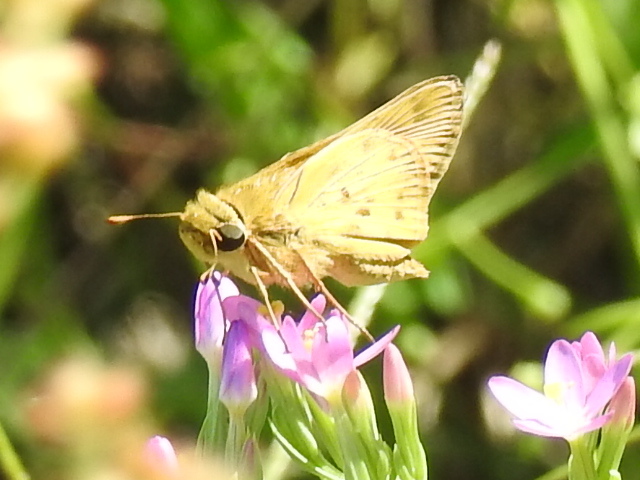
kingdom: Animalia
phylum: Arthropoda
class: Insecta
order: Lepidoptera
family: Hesperiidae
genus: Hylephila
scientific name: Hylephila phyleus
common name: Fiery skipper
